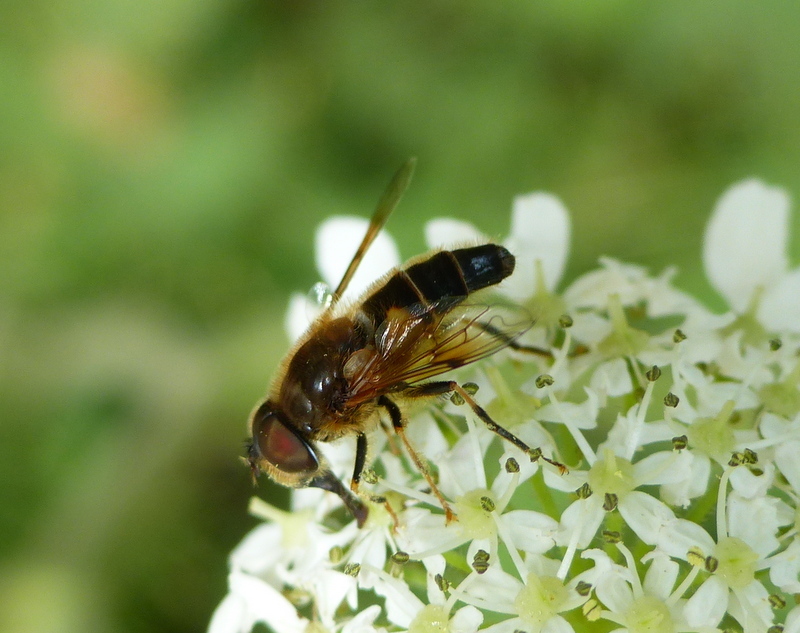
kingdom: Animalia
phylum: Arthropoda
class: Insecta
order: Diptera
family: Syrphidae
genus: Eristalis
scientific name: Eristalis pertinax
